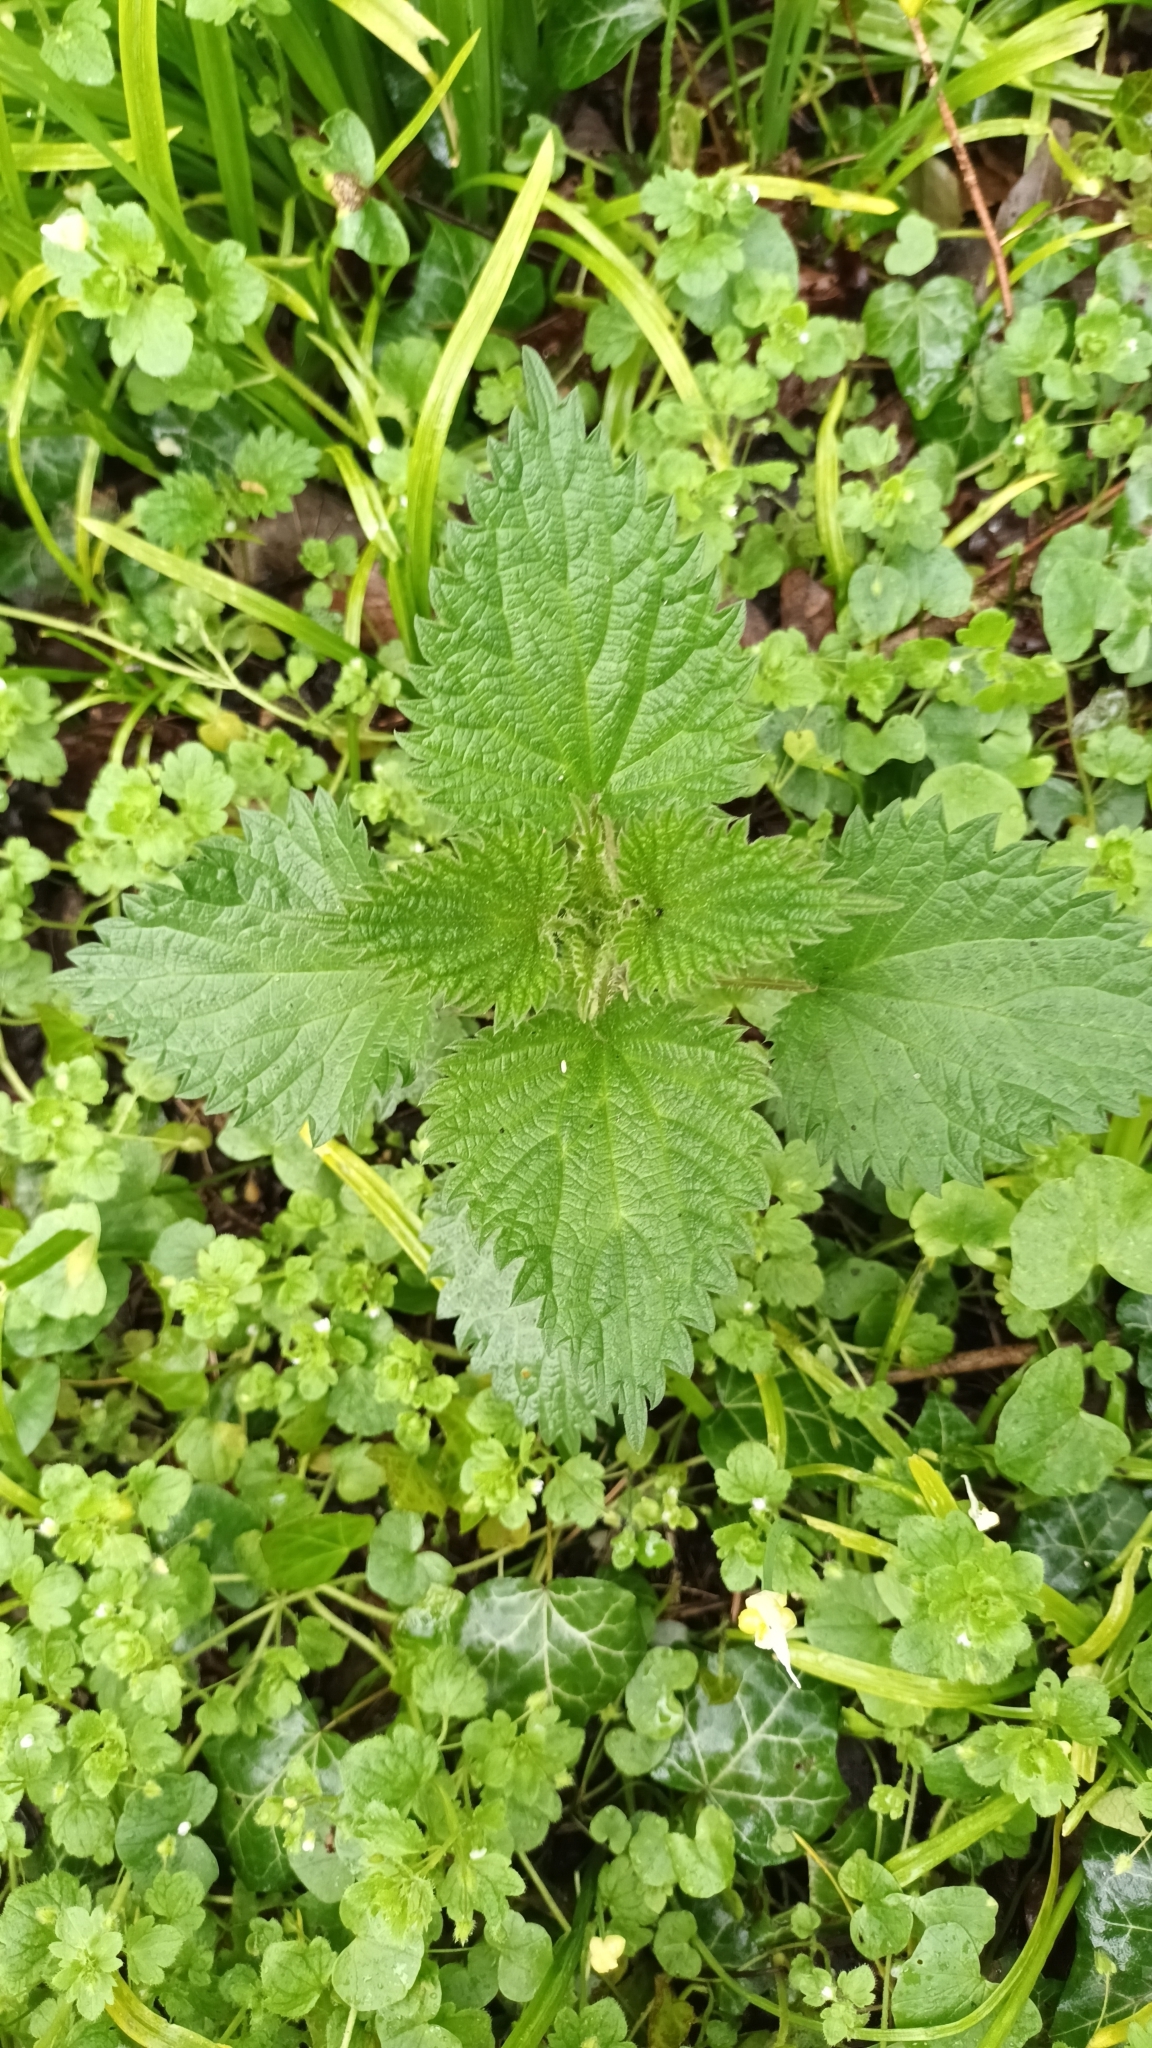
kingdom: Plantae
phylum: Tracheophyta
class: Magnoliopsida
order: Rosales
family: Urticaceae
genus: Urtica
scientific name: Urtica dioica
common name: Common nettle
